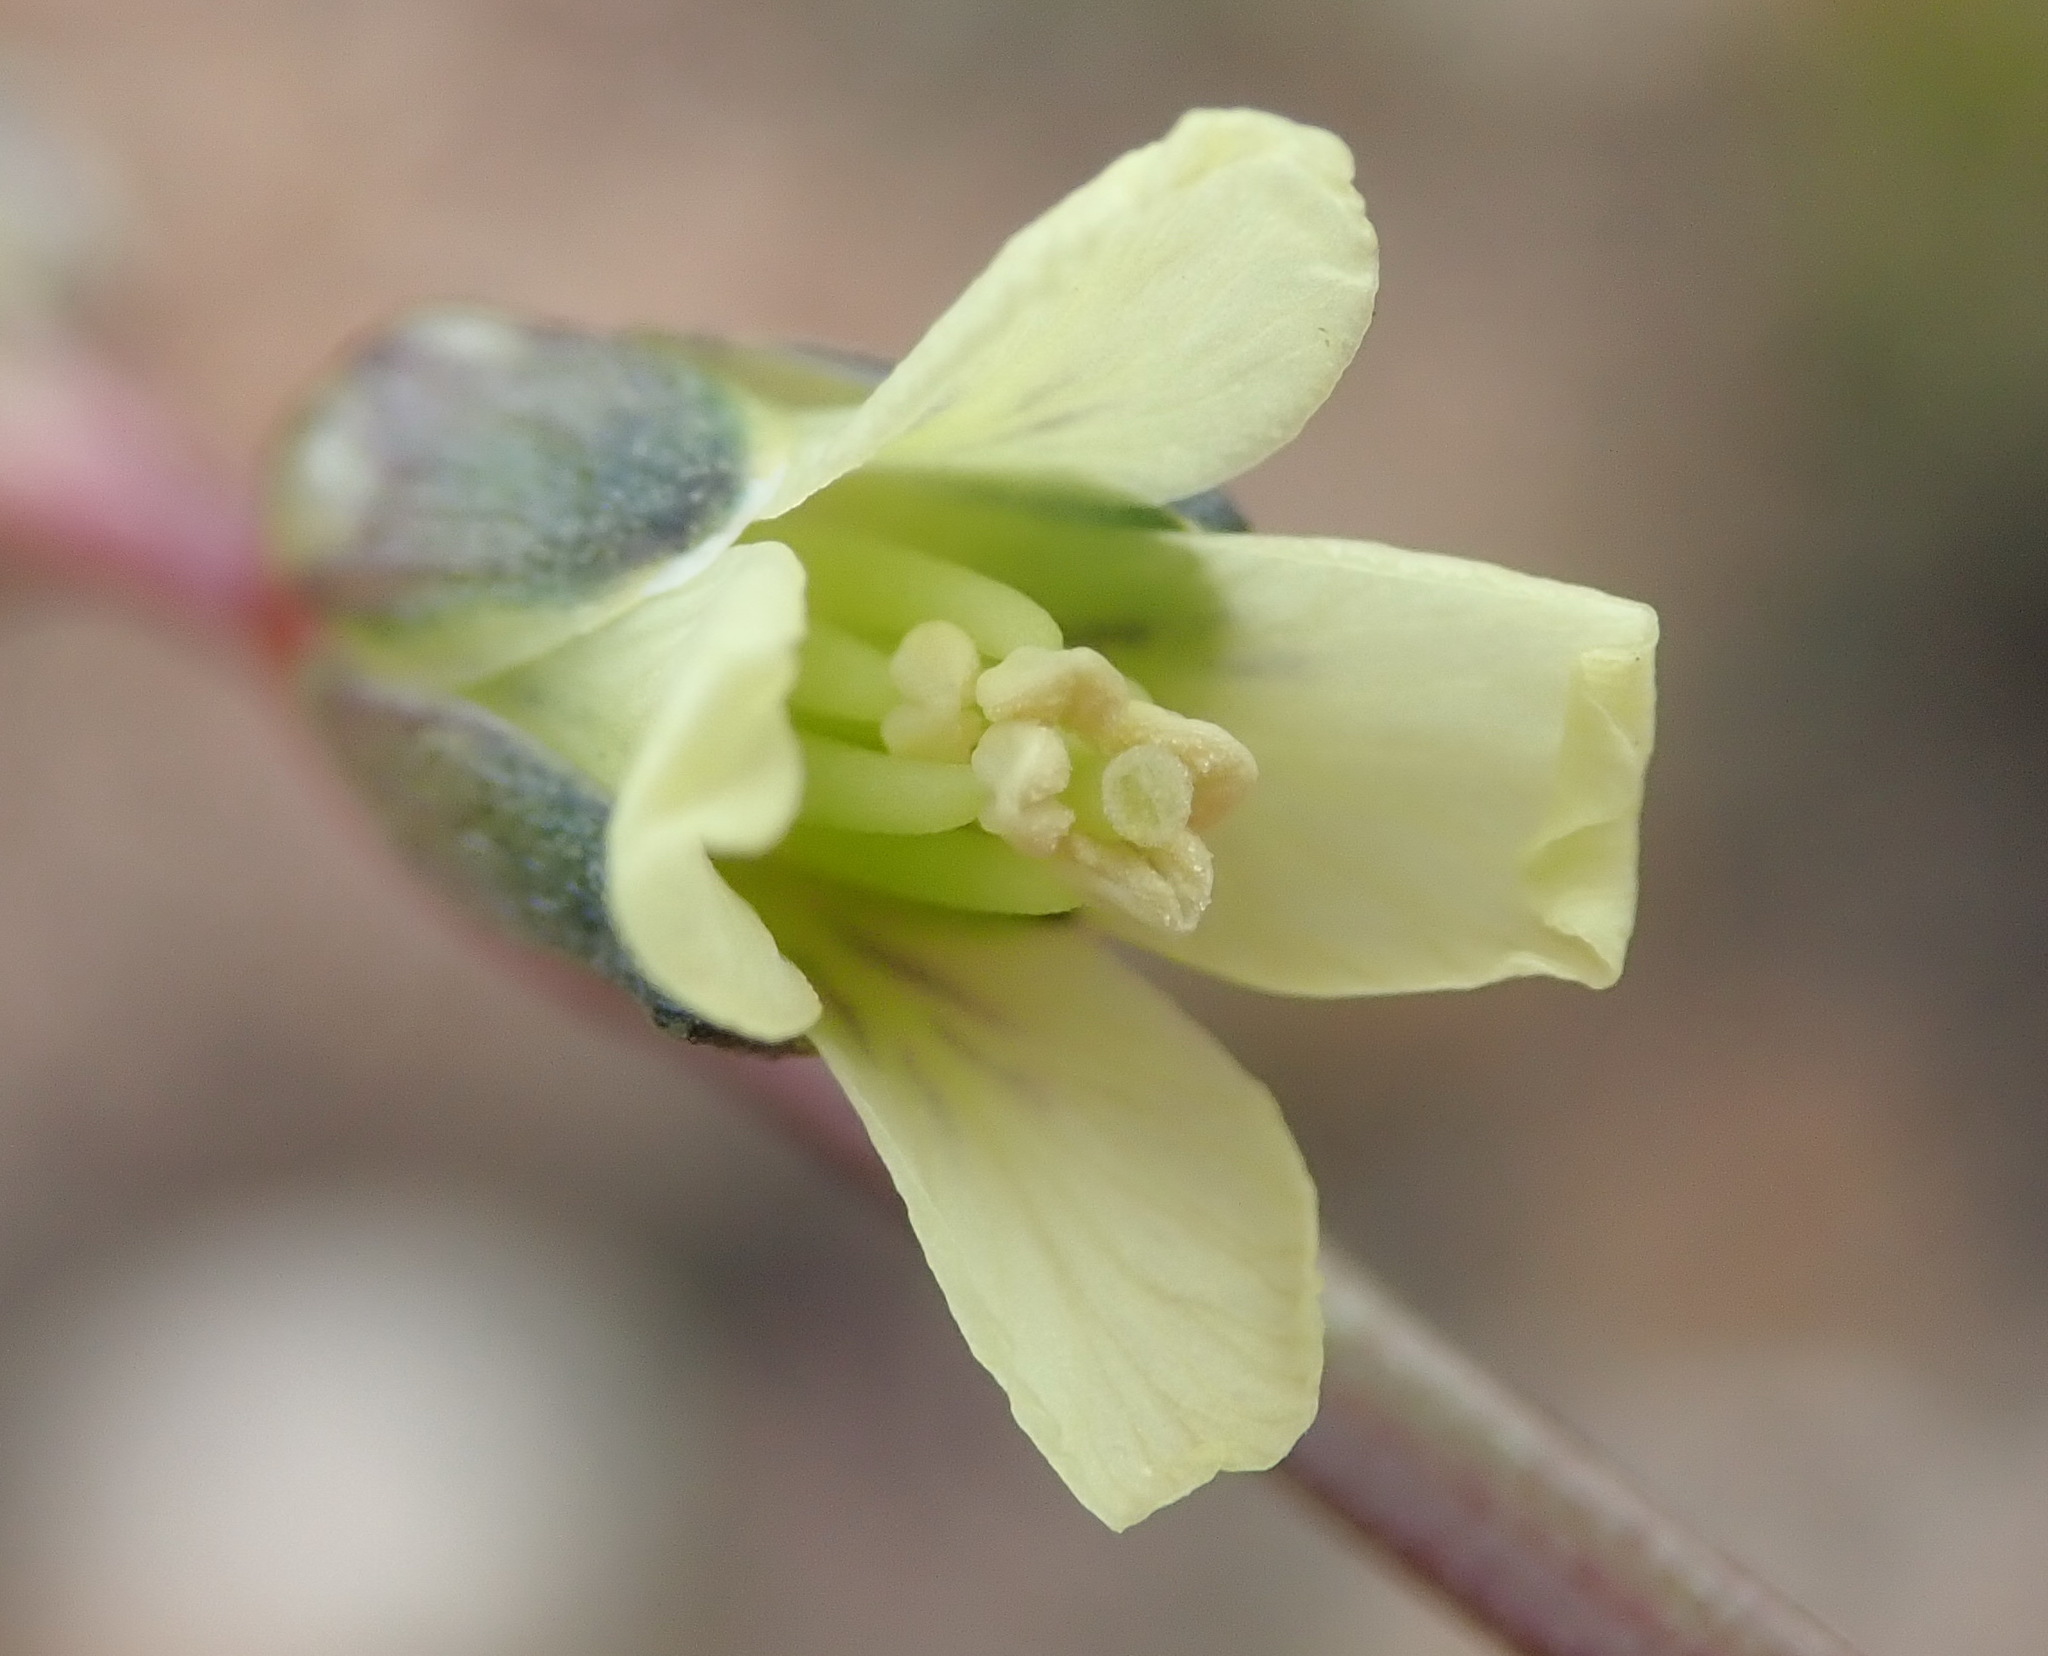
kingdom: Plantae
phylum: Tracheophyta
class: Magnoliopsida
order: Brassicales
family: Brassicaceae
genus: Heliophila
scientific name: Heliophila elongata
